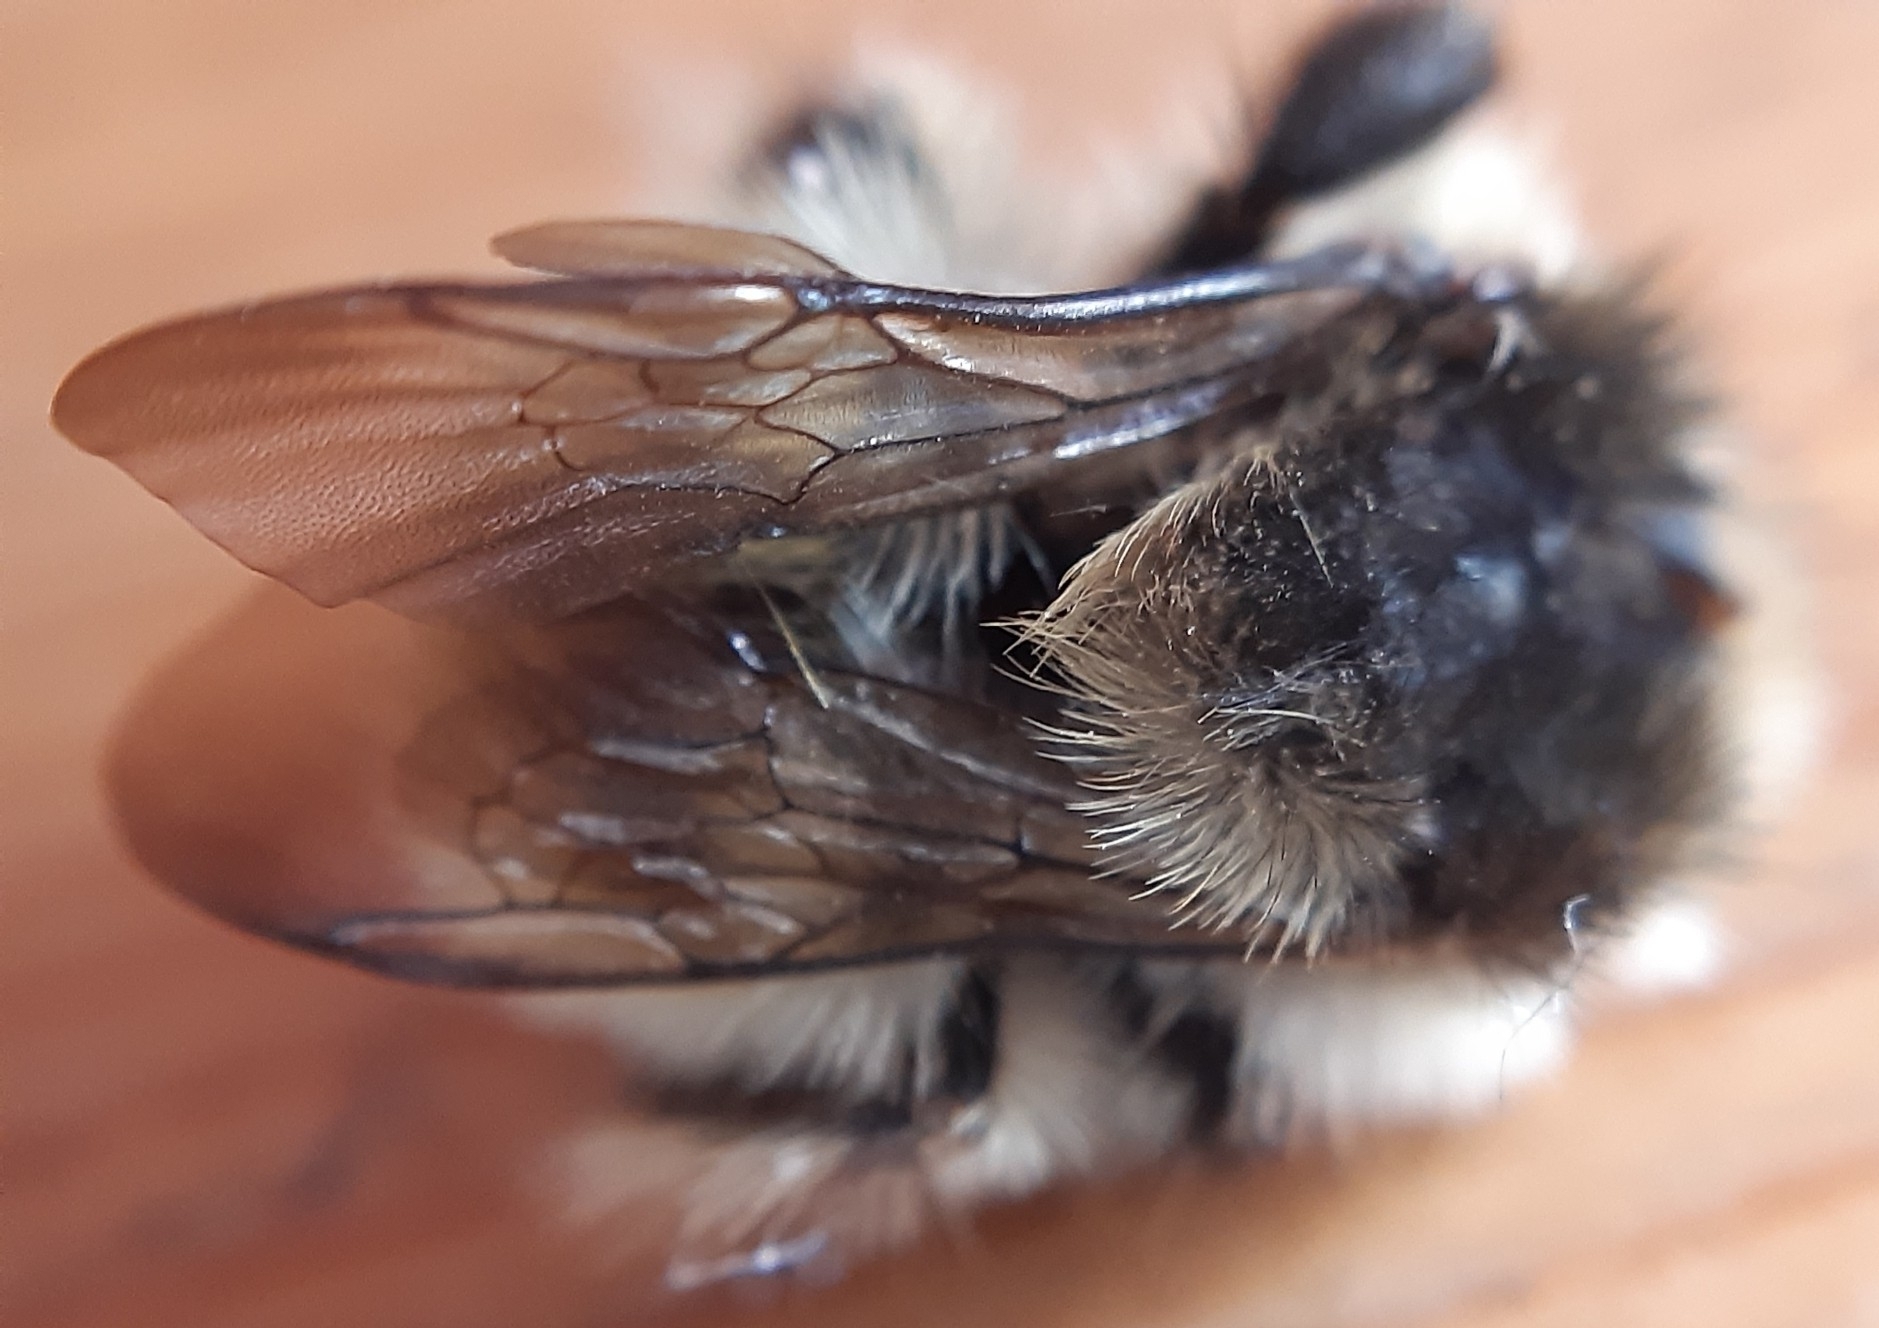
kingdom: Animalia
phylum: Arthropoda
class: Insecta
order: Hymenoptera
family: Apidae
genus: Bombus
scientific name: Bombus humilis
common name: Brown-banded carder-bee
